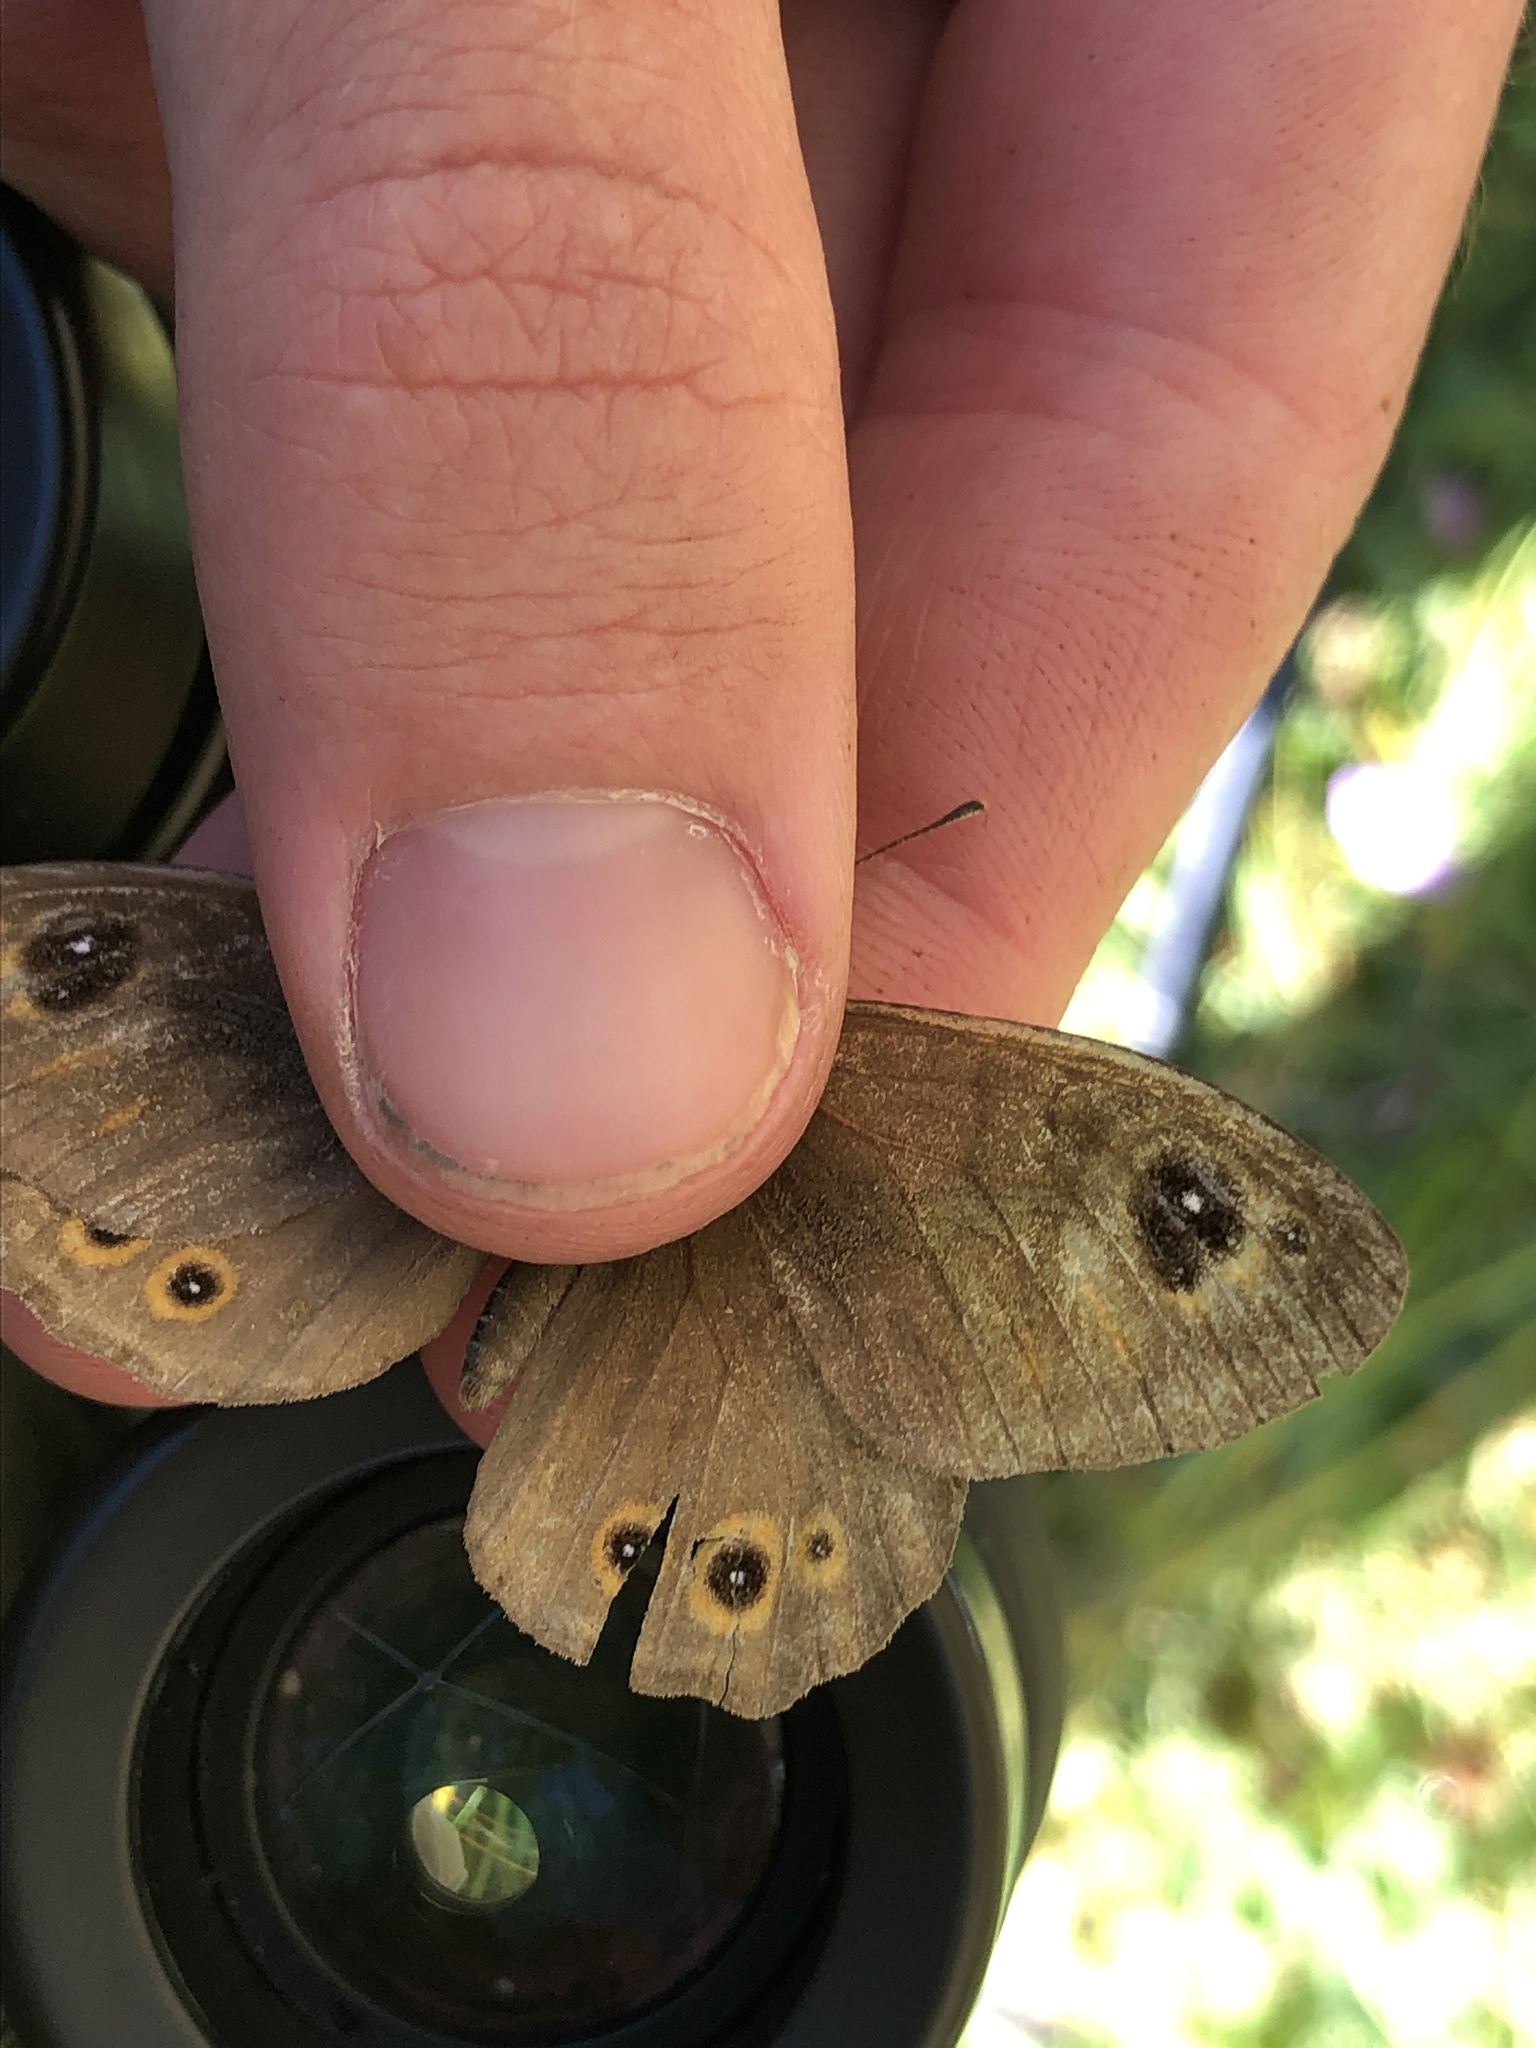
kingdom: Animalia
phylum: Arthropoda
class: Insecta
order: Lepidoptera
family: Nymphalidae
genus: Pararge
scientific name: Pararge Lasiommata maera
